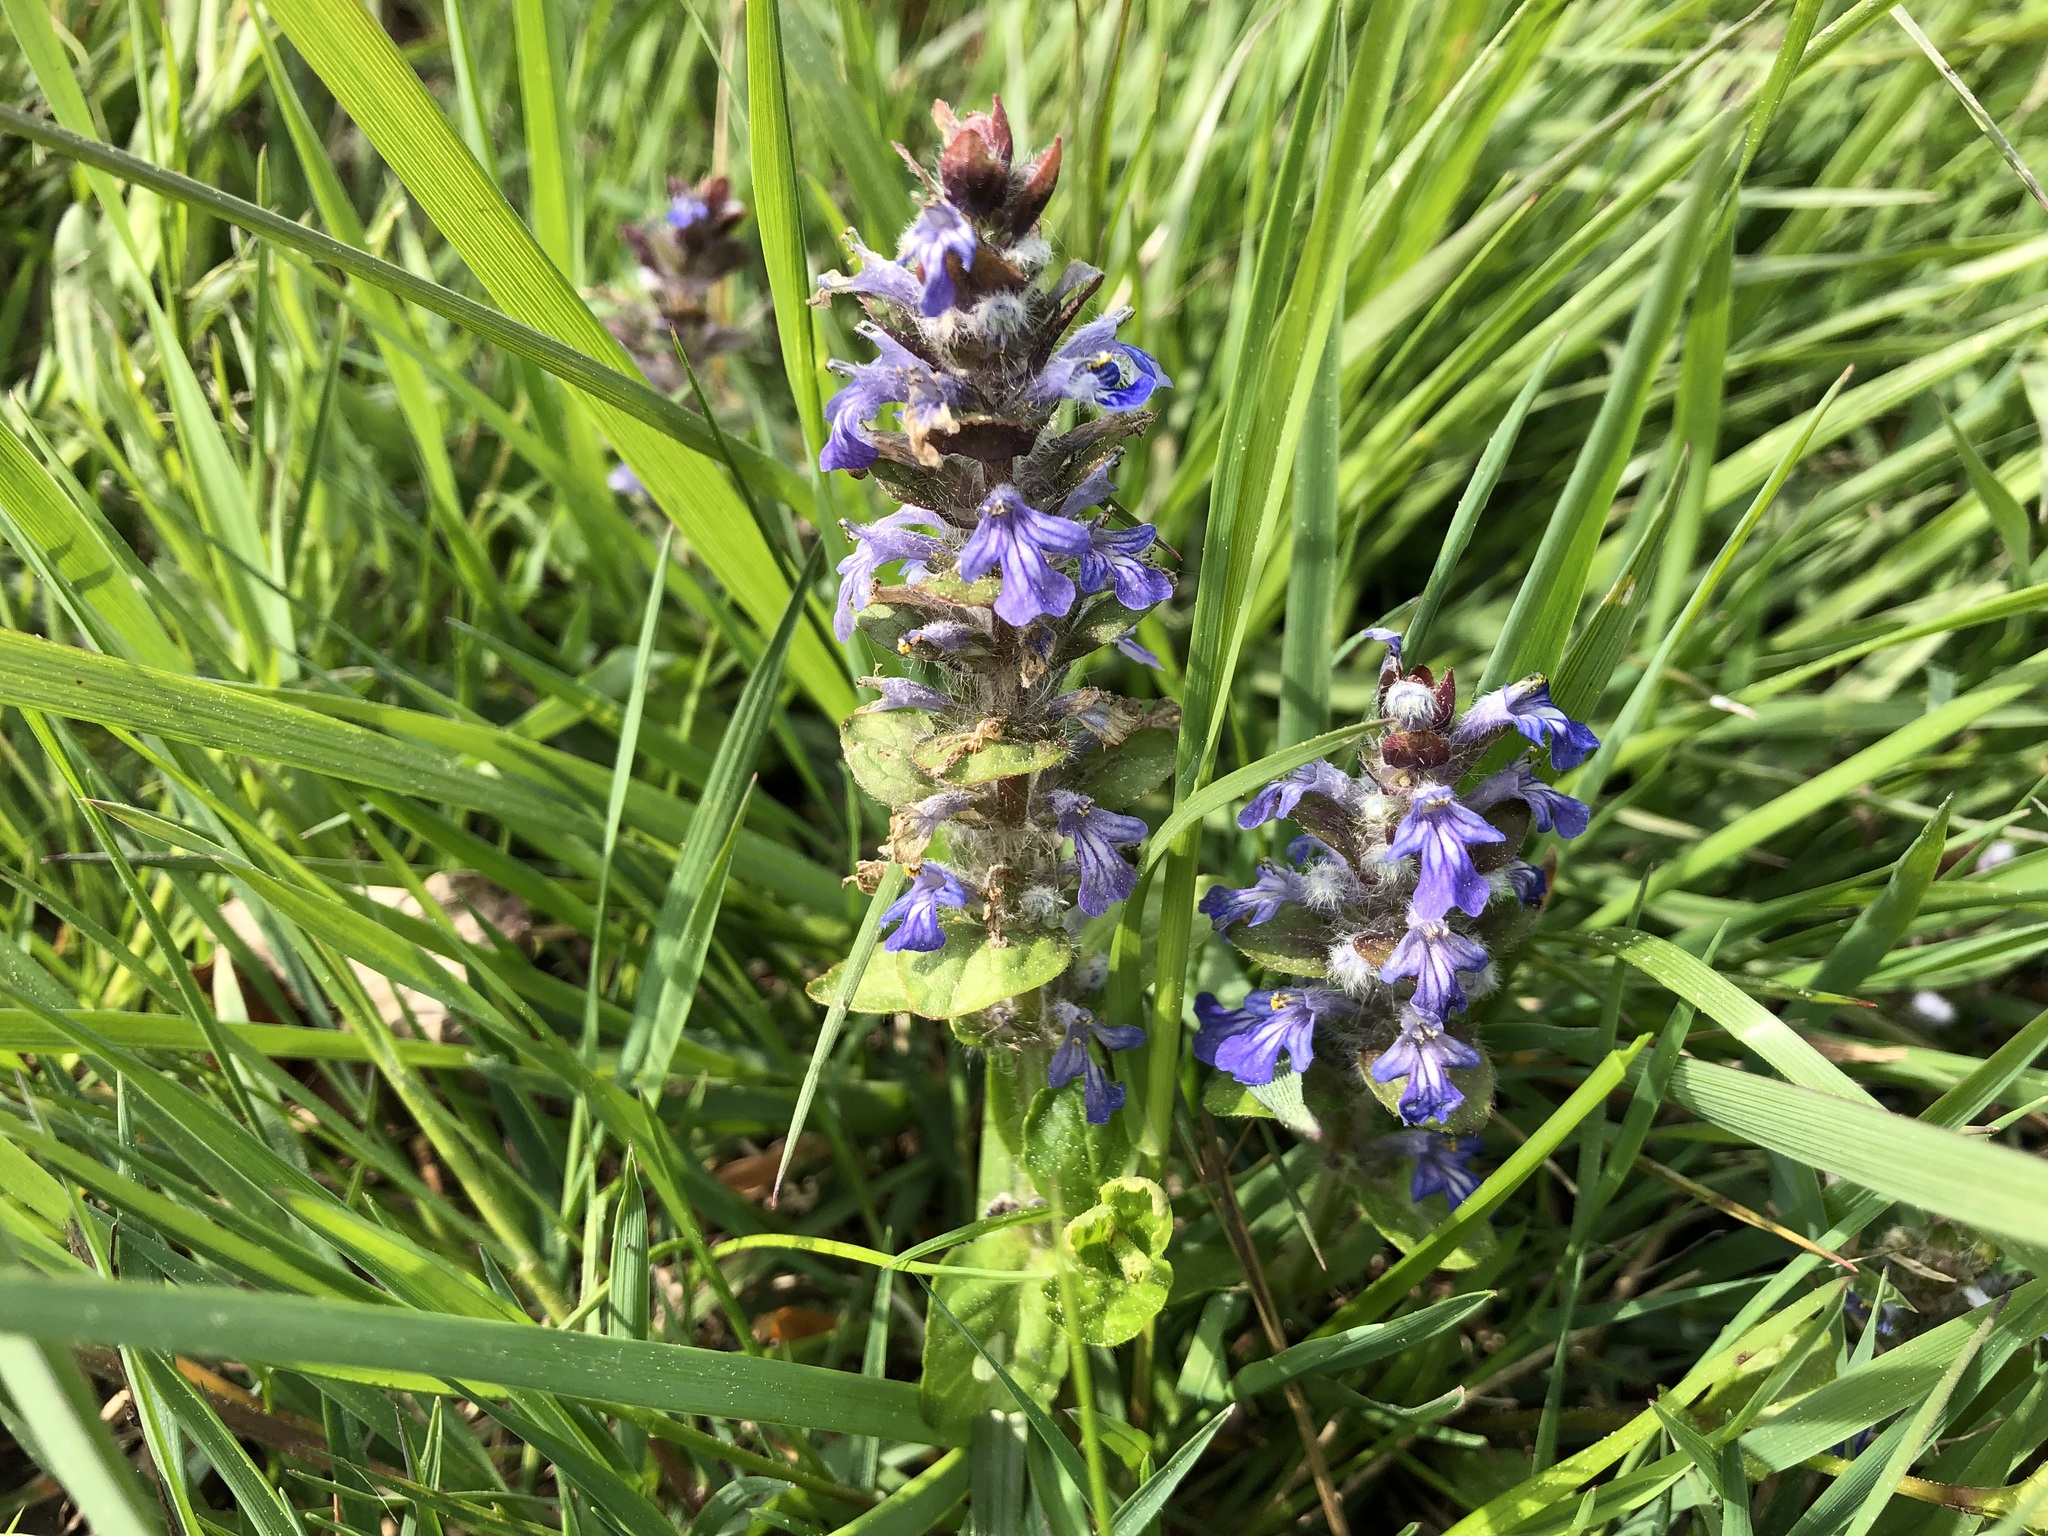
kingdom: Plantae
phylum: Tracheophyta
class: Magnoliopsida
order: Lamiales
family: Lamiaceae
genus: Ajuga
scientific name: Ajuga reptans
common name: Bugle
